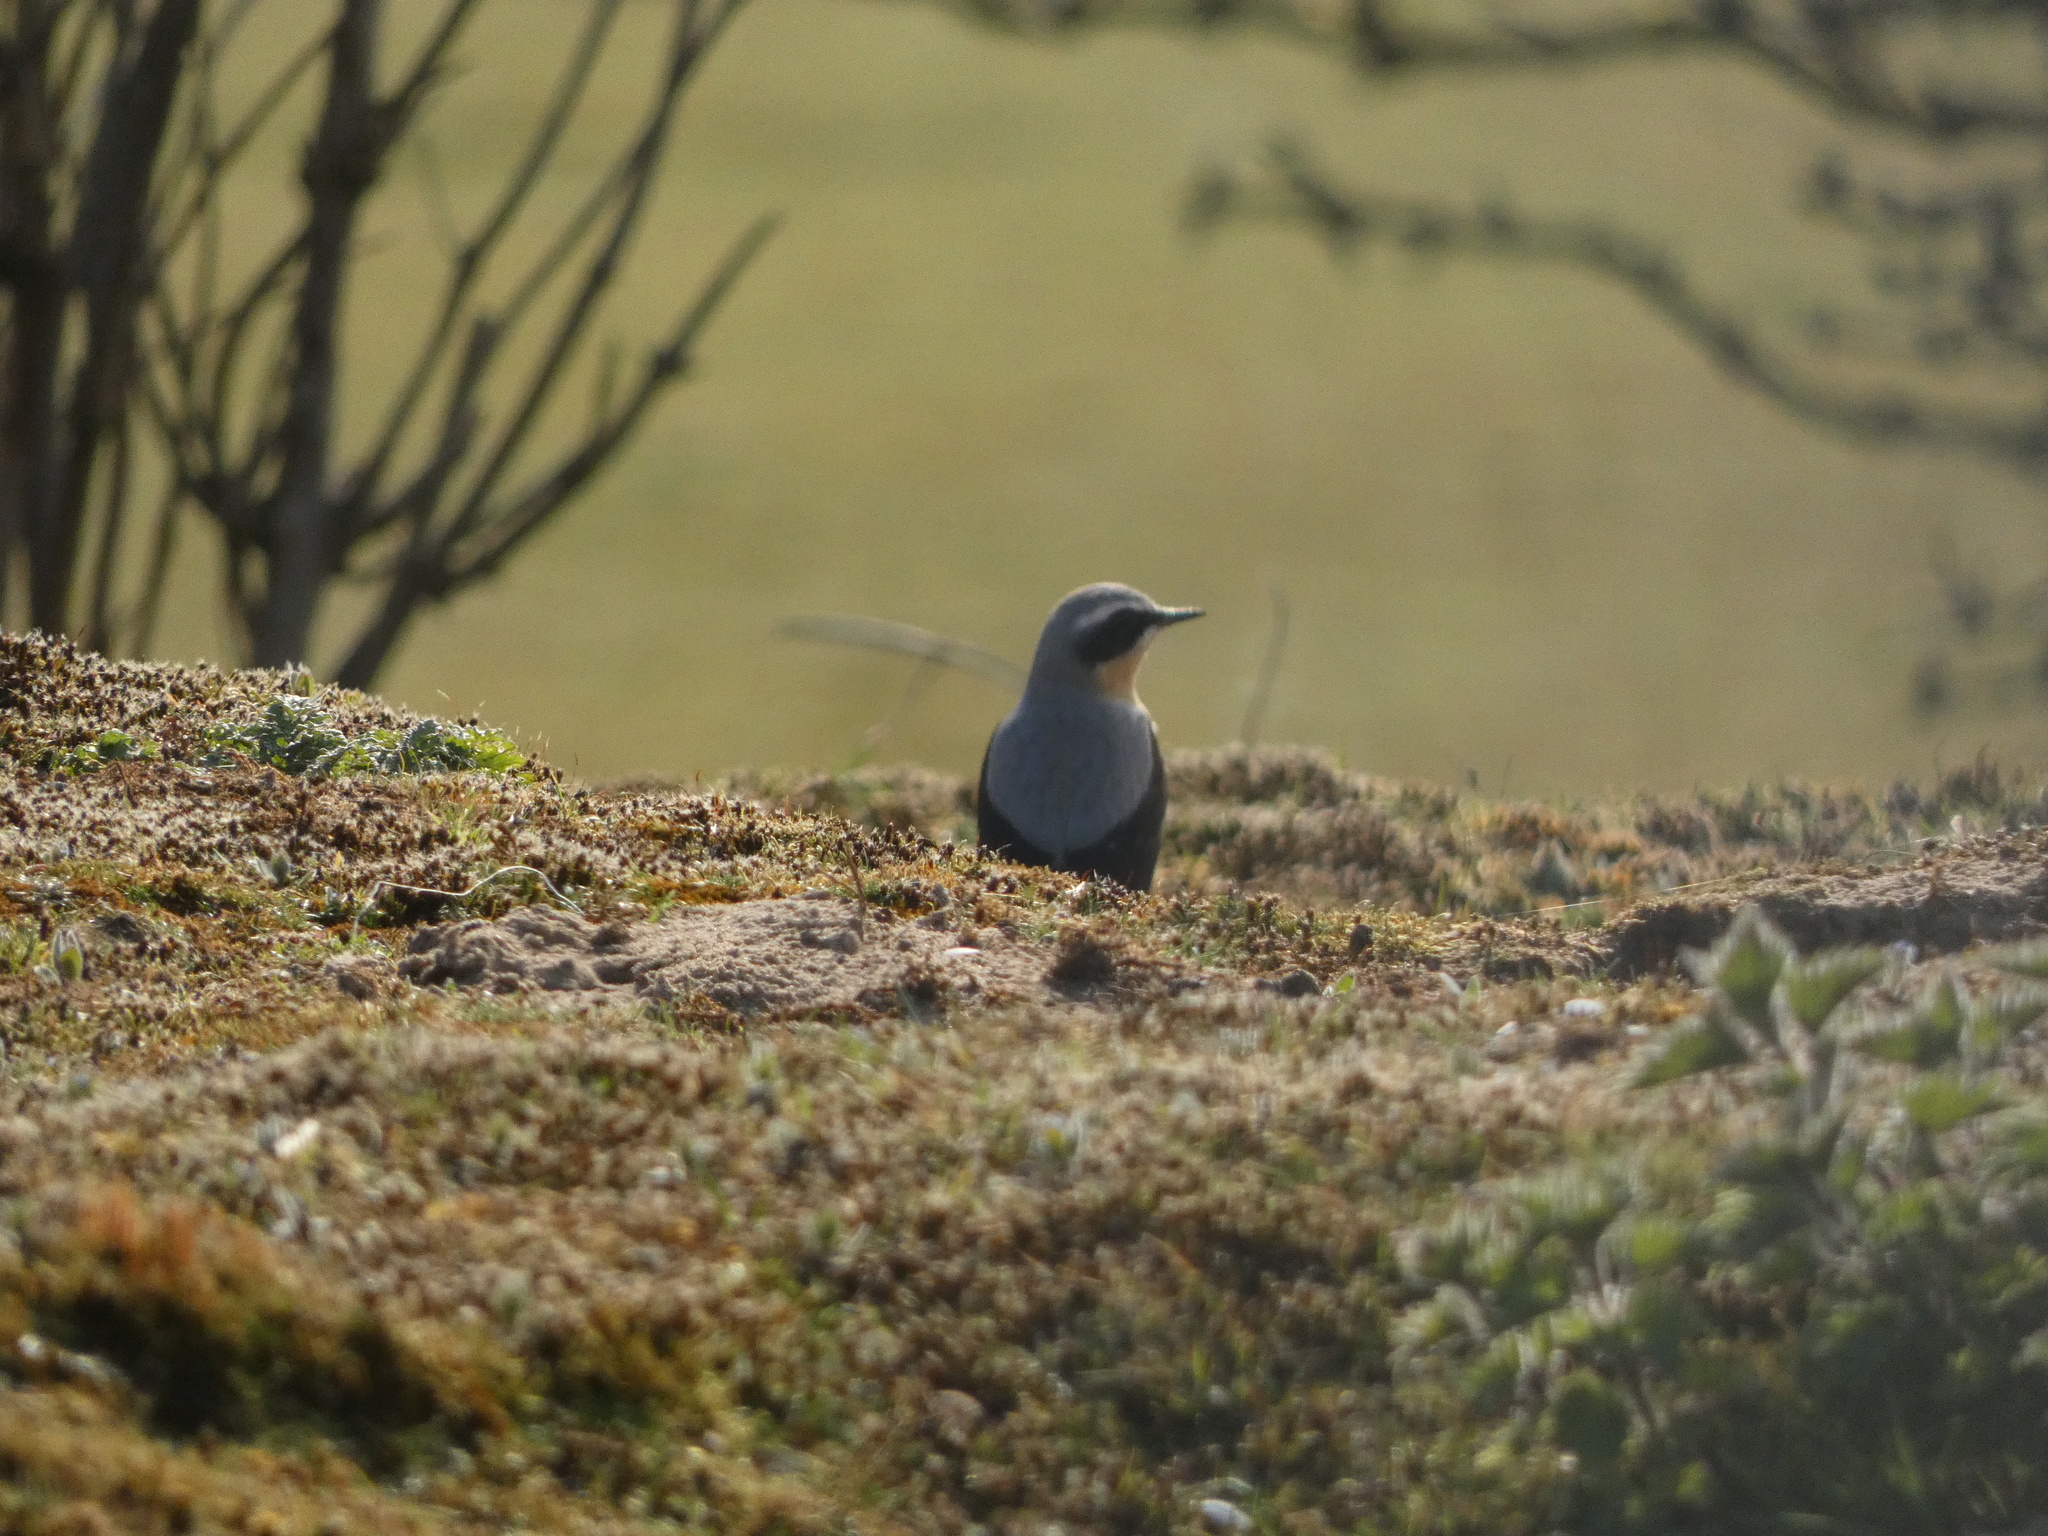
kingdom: Animalia
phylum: Chordata
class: Aves
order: Passeriformes
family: Muscicapidae
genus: Oenanthe
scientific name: Oenanthe oenanthe
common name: Northern wheatear
